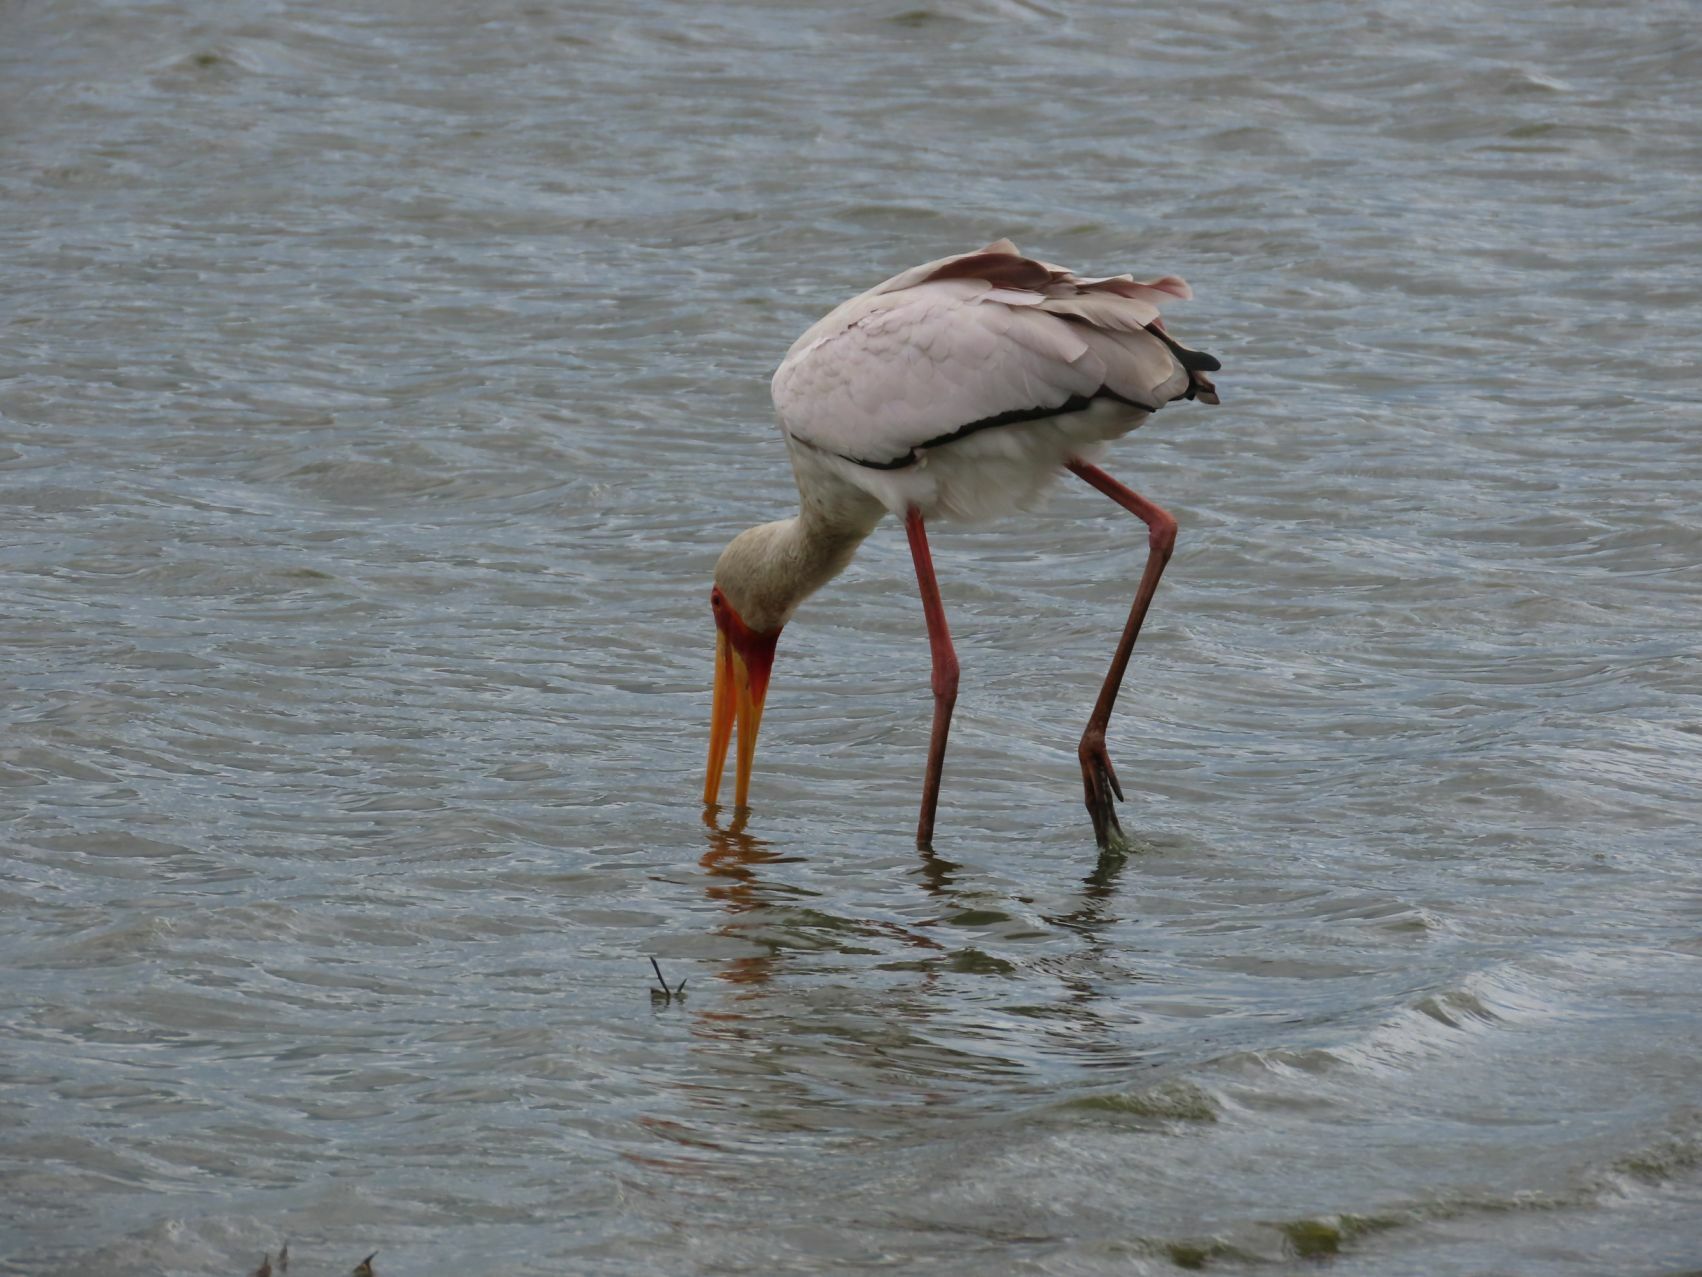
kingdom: Animalia
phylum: Chordata
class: Aves
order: Ciconiiformes
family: Ciconiidae
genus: Mycteria
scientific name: Mycteria ibis
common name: Yellow-billed stork
